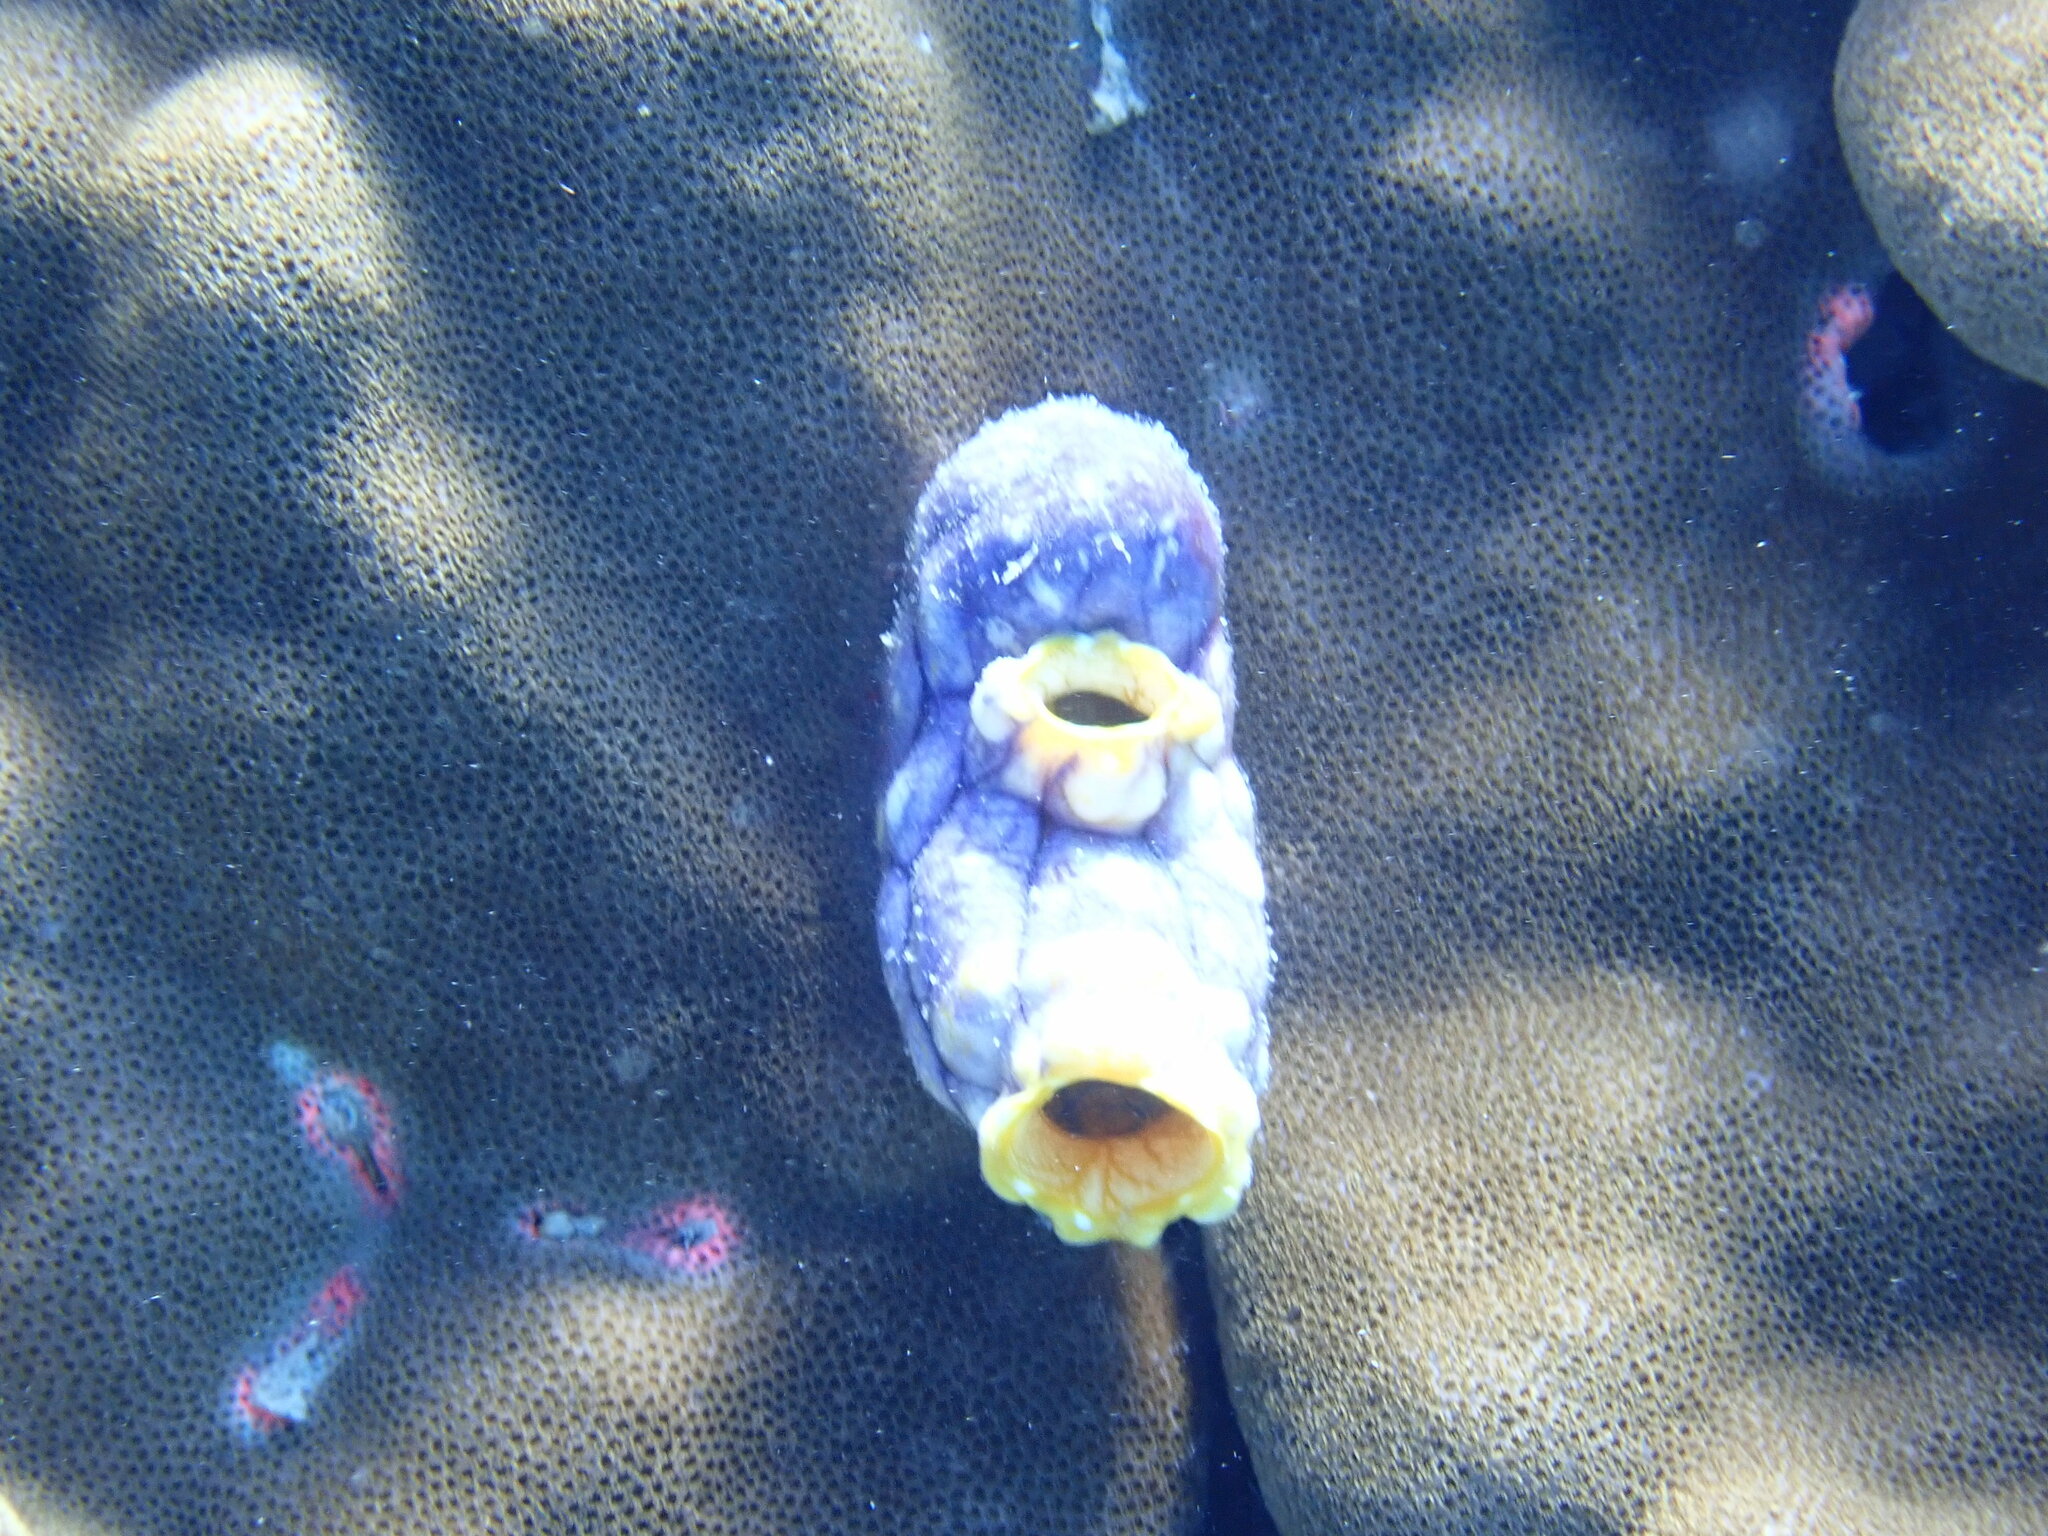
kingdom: Animalia
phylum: Chordata
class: Ascidiacea
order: Stolidobranchia
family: Styelidae
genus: Polycarpa
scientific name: Polycarpa aurata
